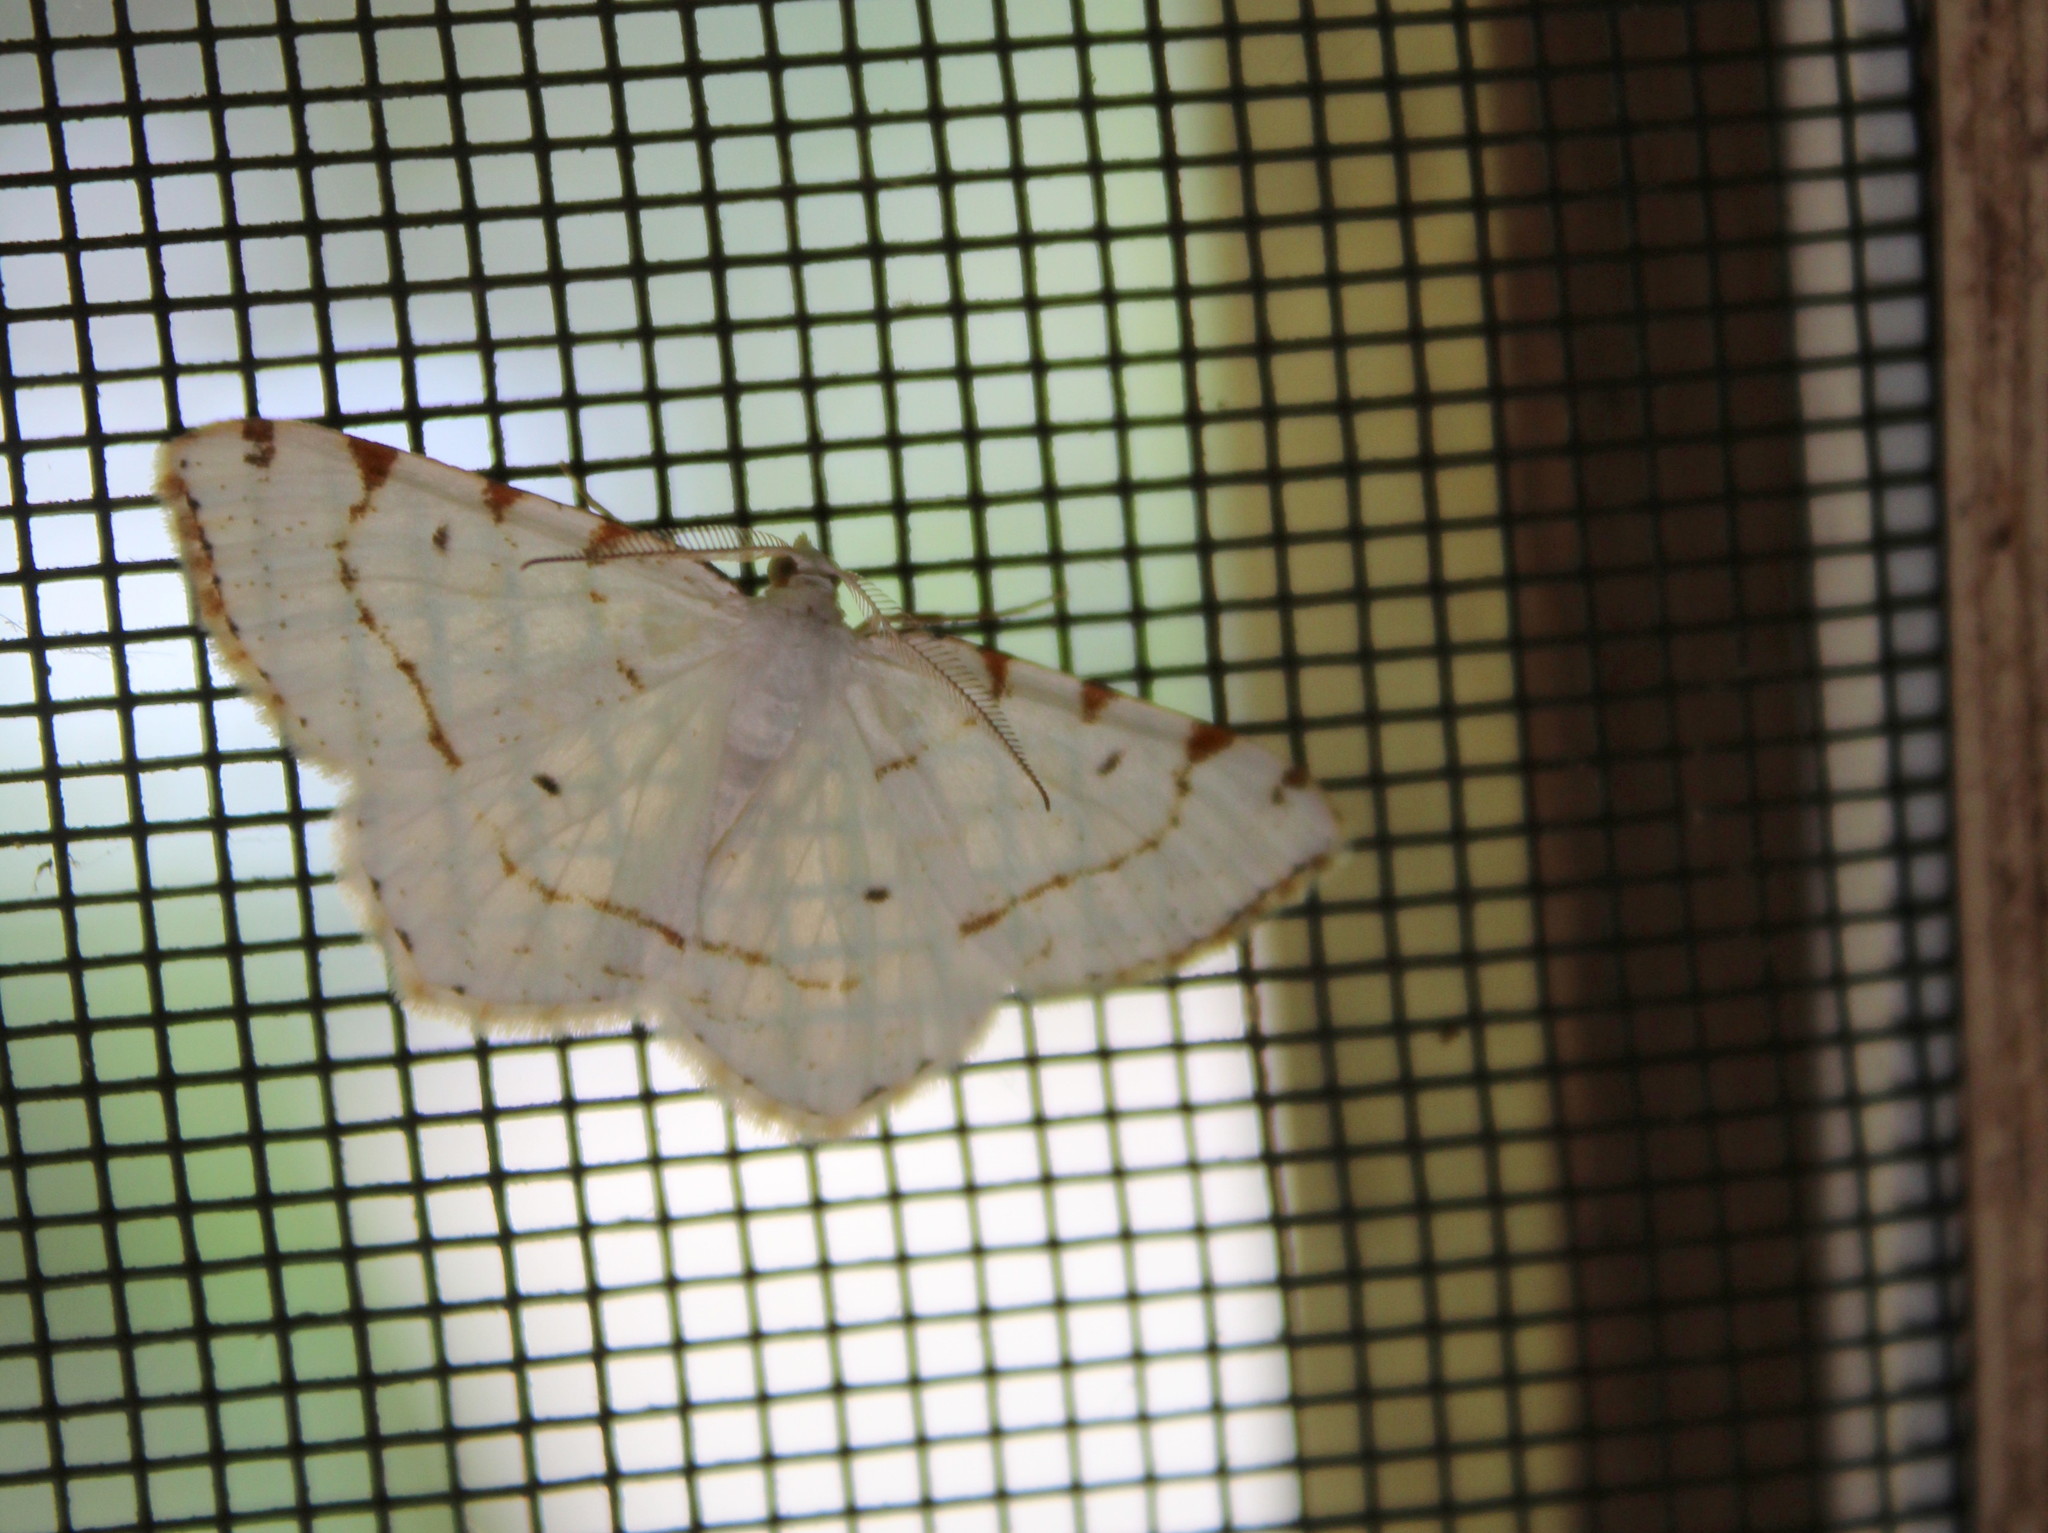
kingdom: Animalia
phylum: Arthropoda
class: Insecta
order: Lepidoptera
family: Geometridae
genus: Macaria
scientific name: Macaria pustularia
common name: Lesser maple spanworm moth
